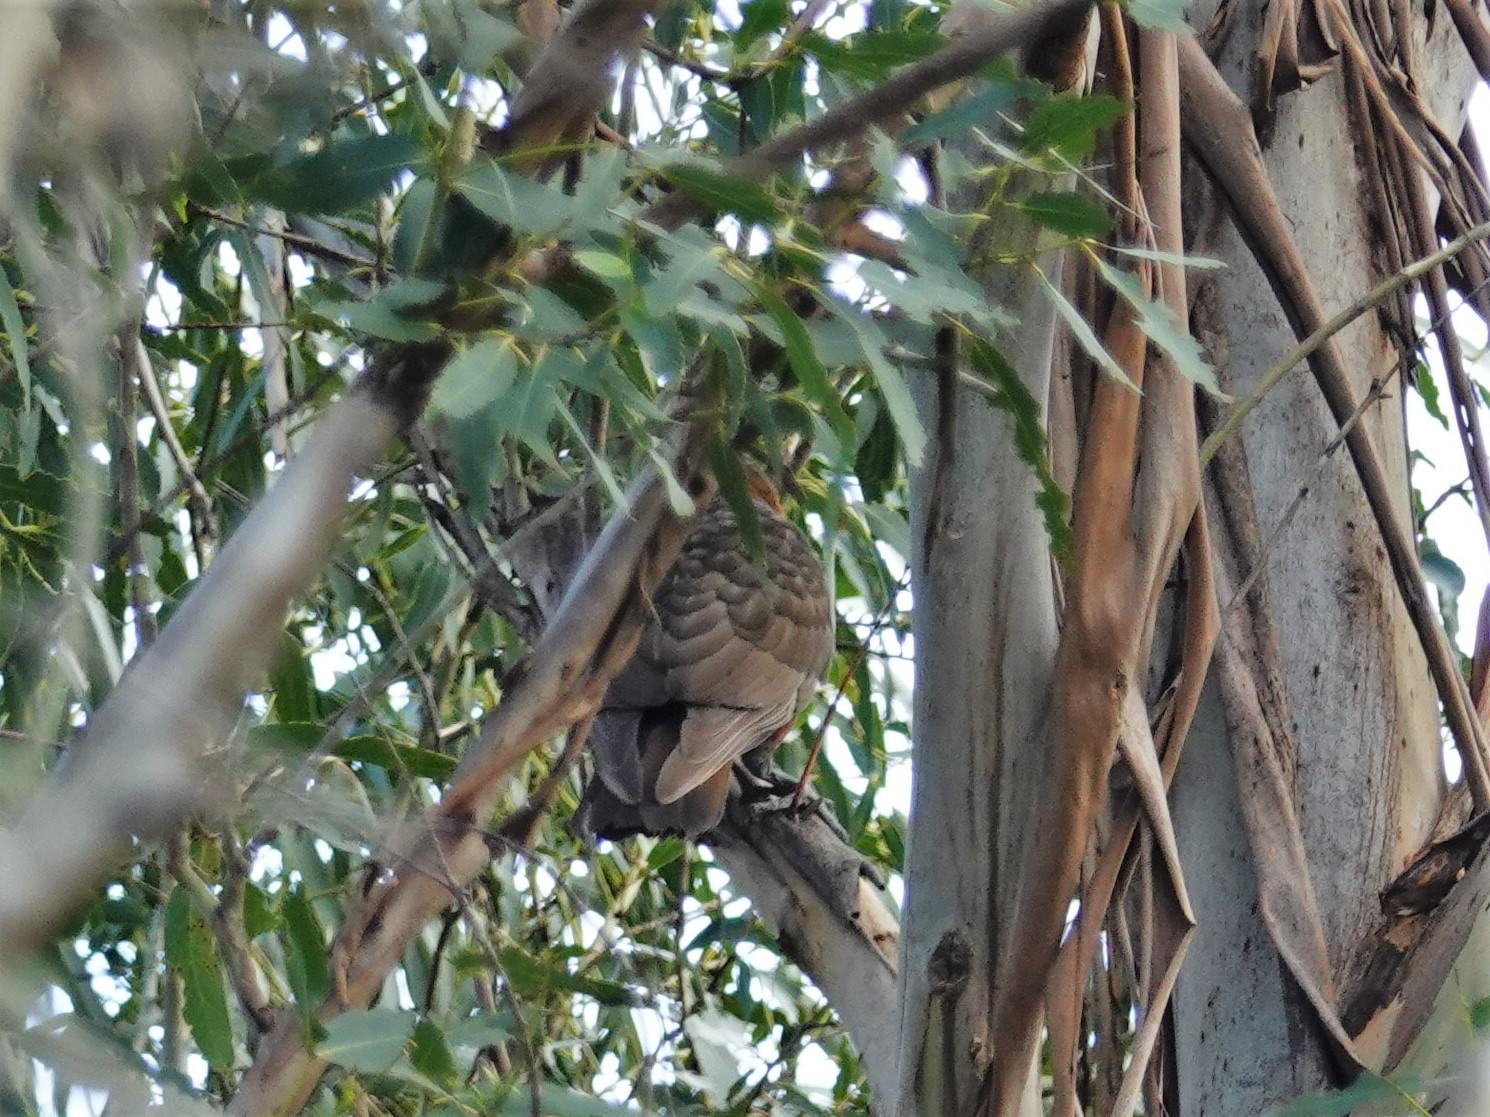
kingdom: Animalia
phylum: Chordata
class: Aves
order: Psittaciformes
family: Psittacidae
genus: Nestor
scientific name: Nestor meridionalis
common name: New zealand kaka
